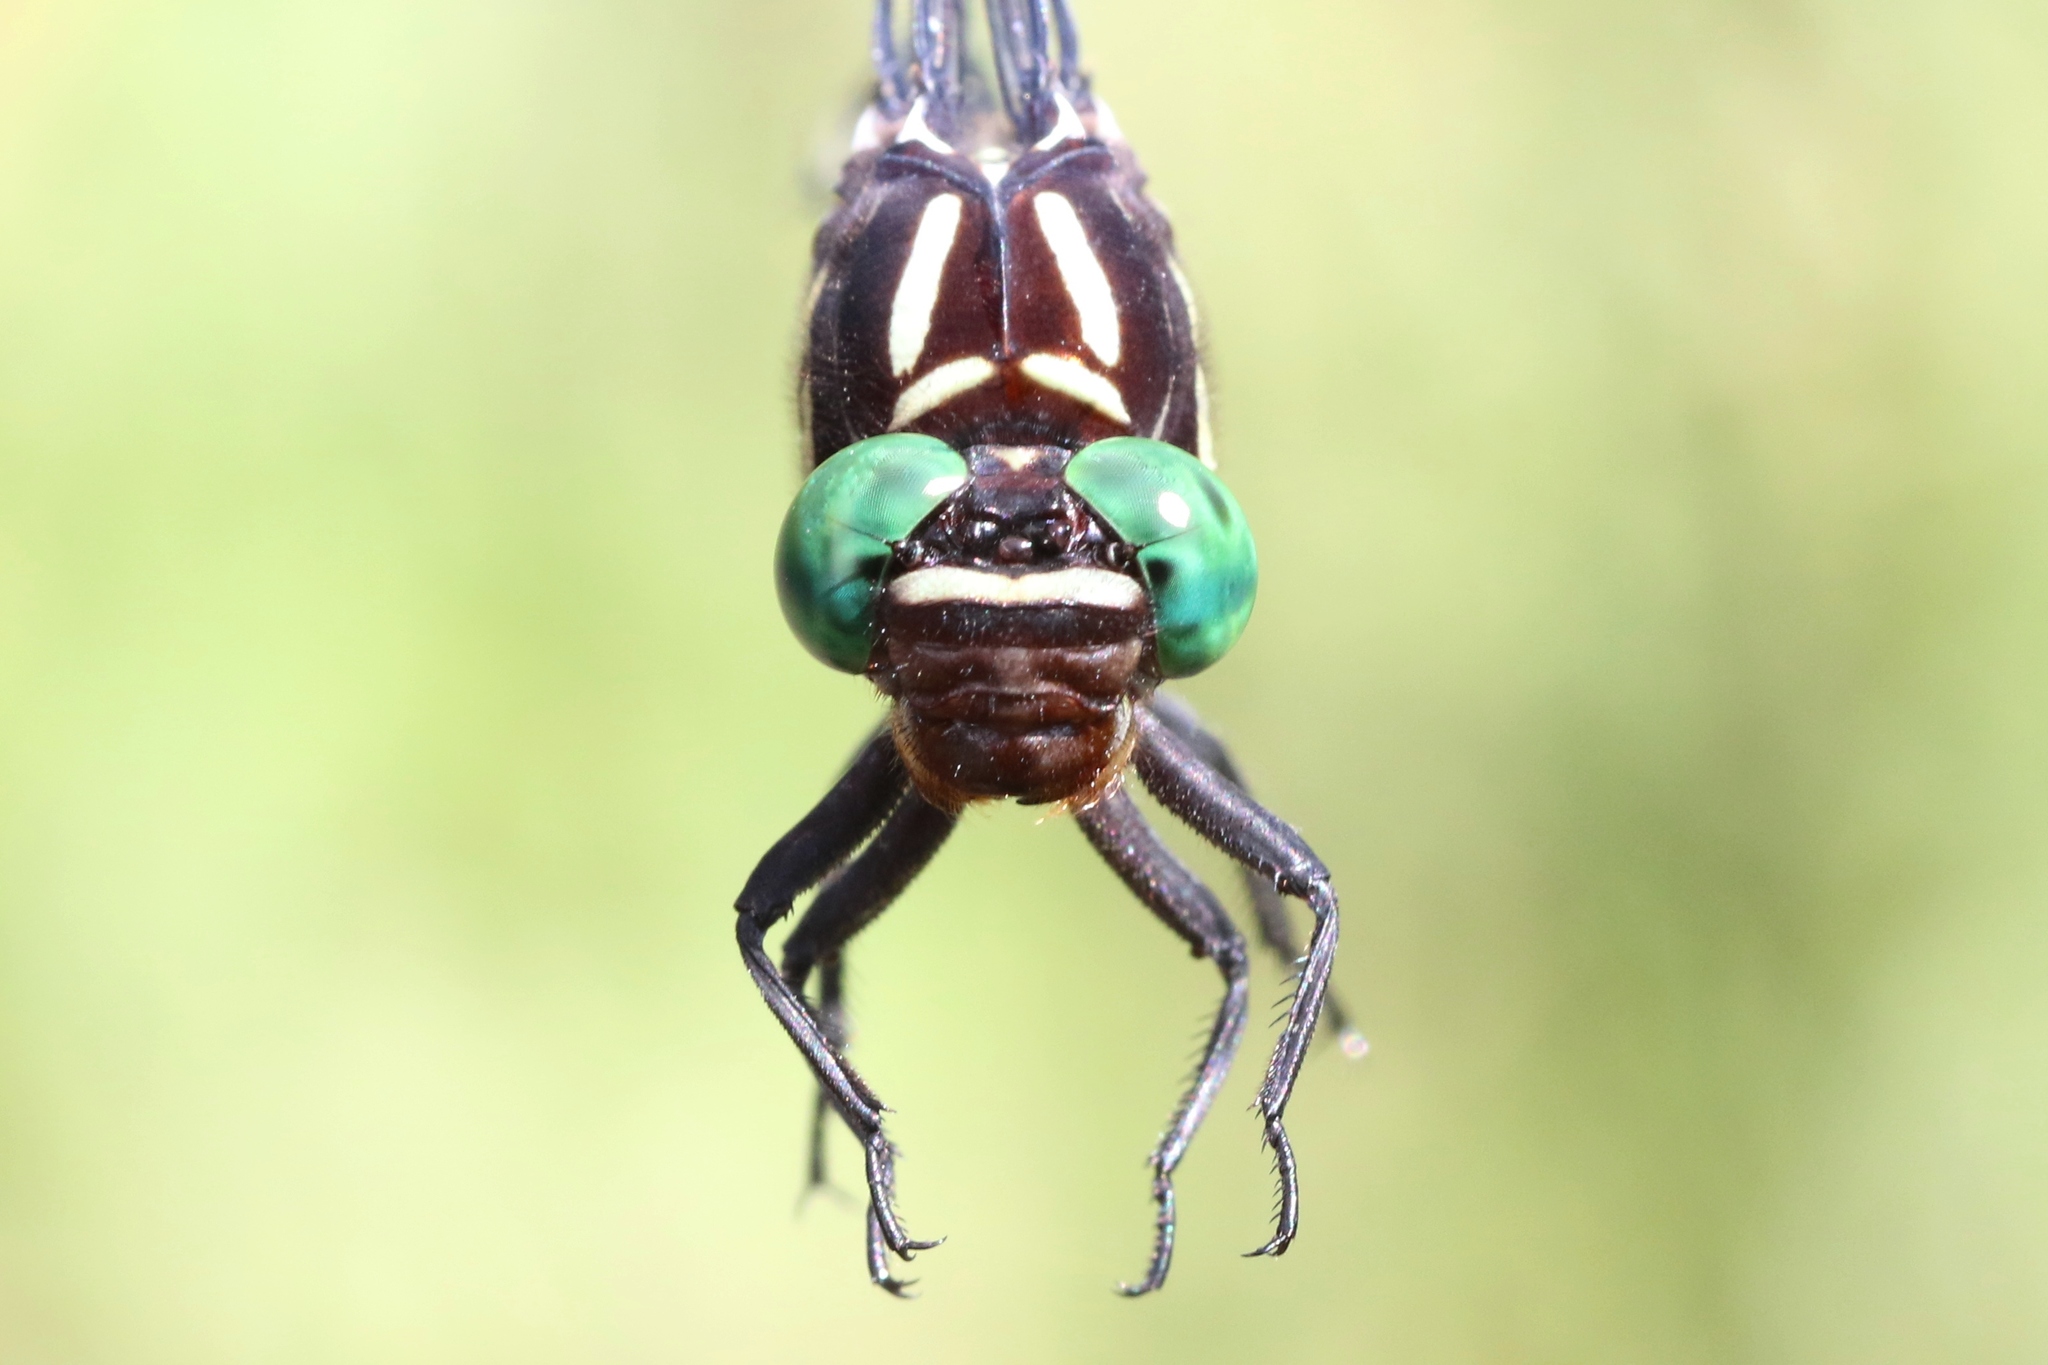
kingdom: Animalia
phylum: Arthropoda
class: Insecta
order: Odonata
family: Gomphidae
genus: Stylurus
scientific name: Stylurus spiniceps
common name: Arrow clubtail
